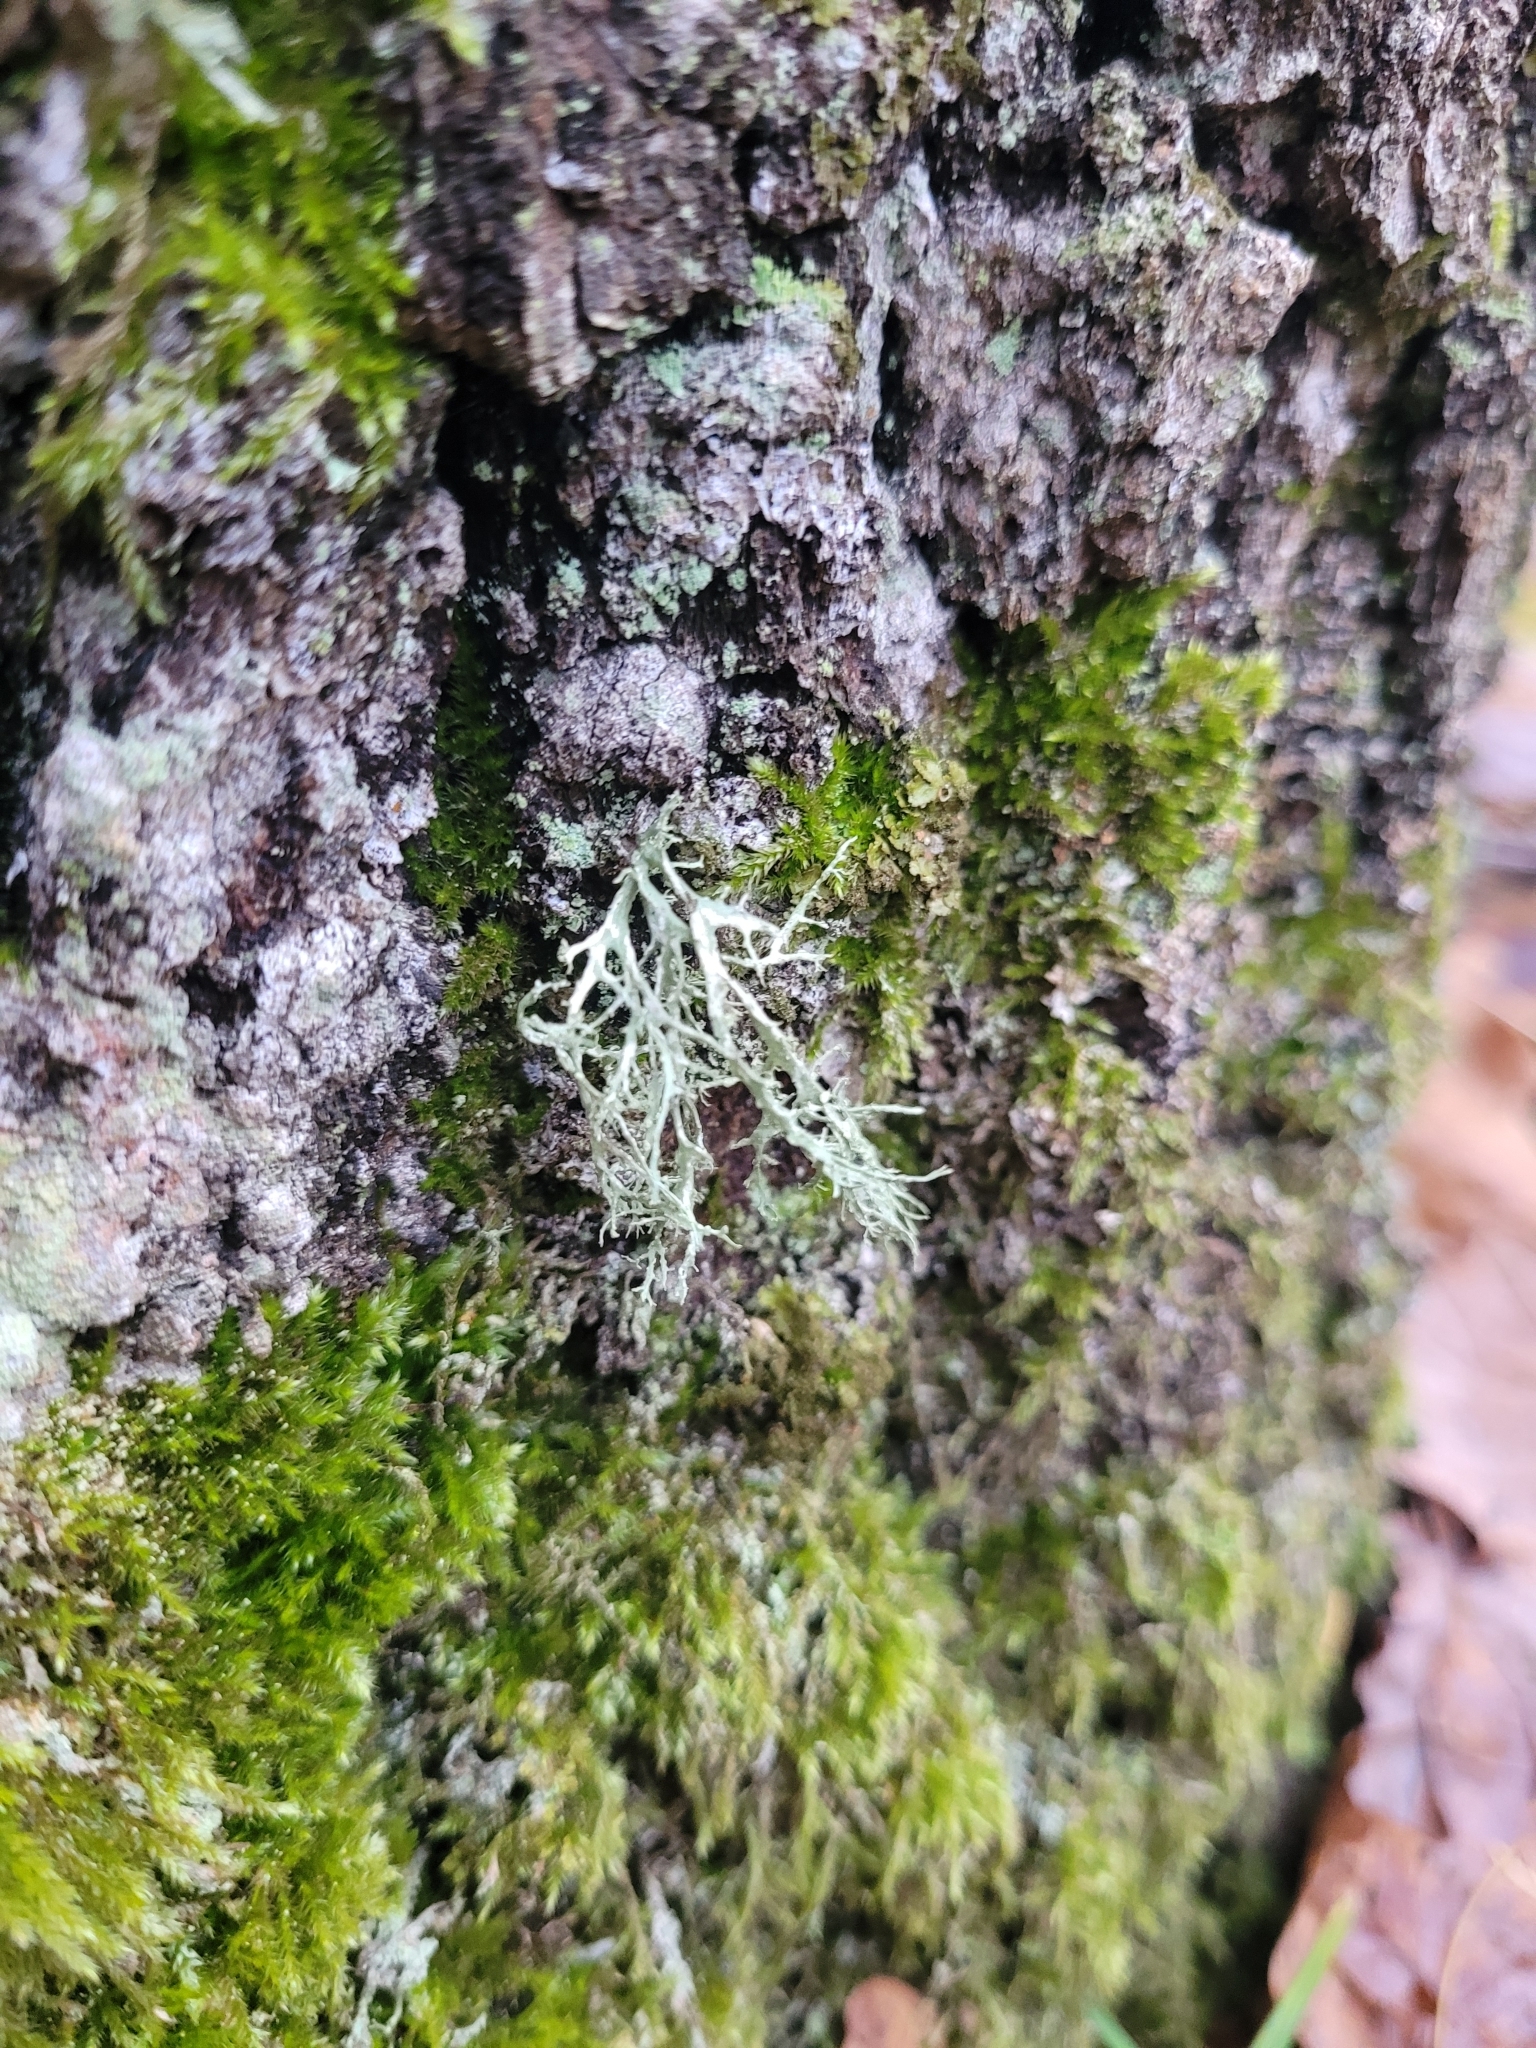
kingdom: Fungi
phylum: Ascomycota
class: Lecanoromycetes
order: Lecanorales
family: Ramalinaceae
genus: Ramalina
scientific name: Ramalina farinacea
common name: Farinose cartilage lichen
